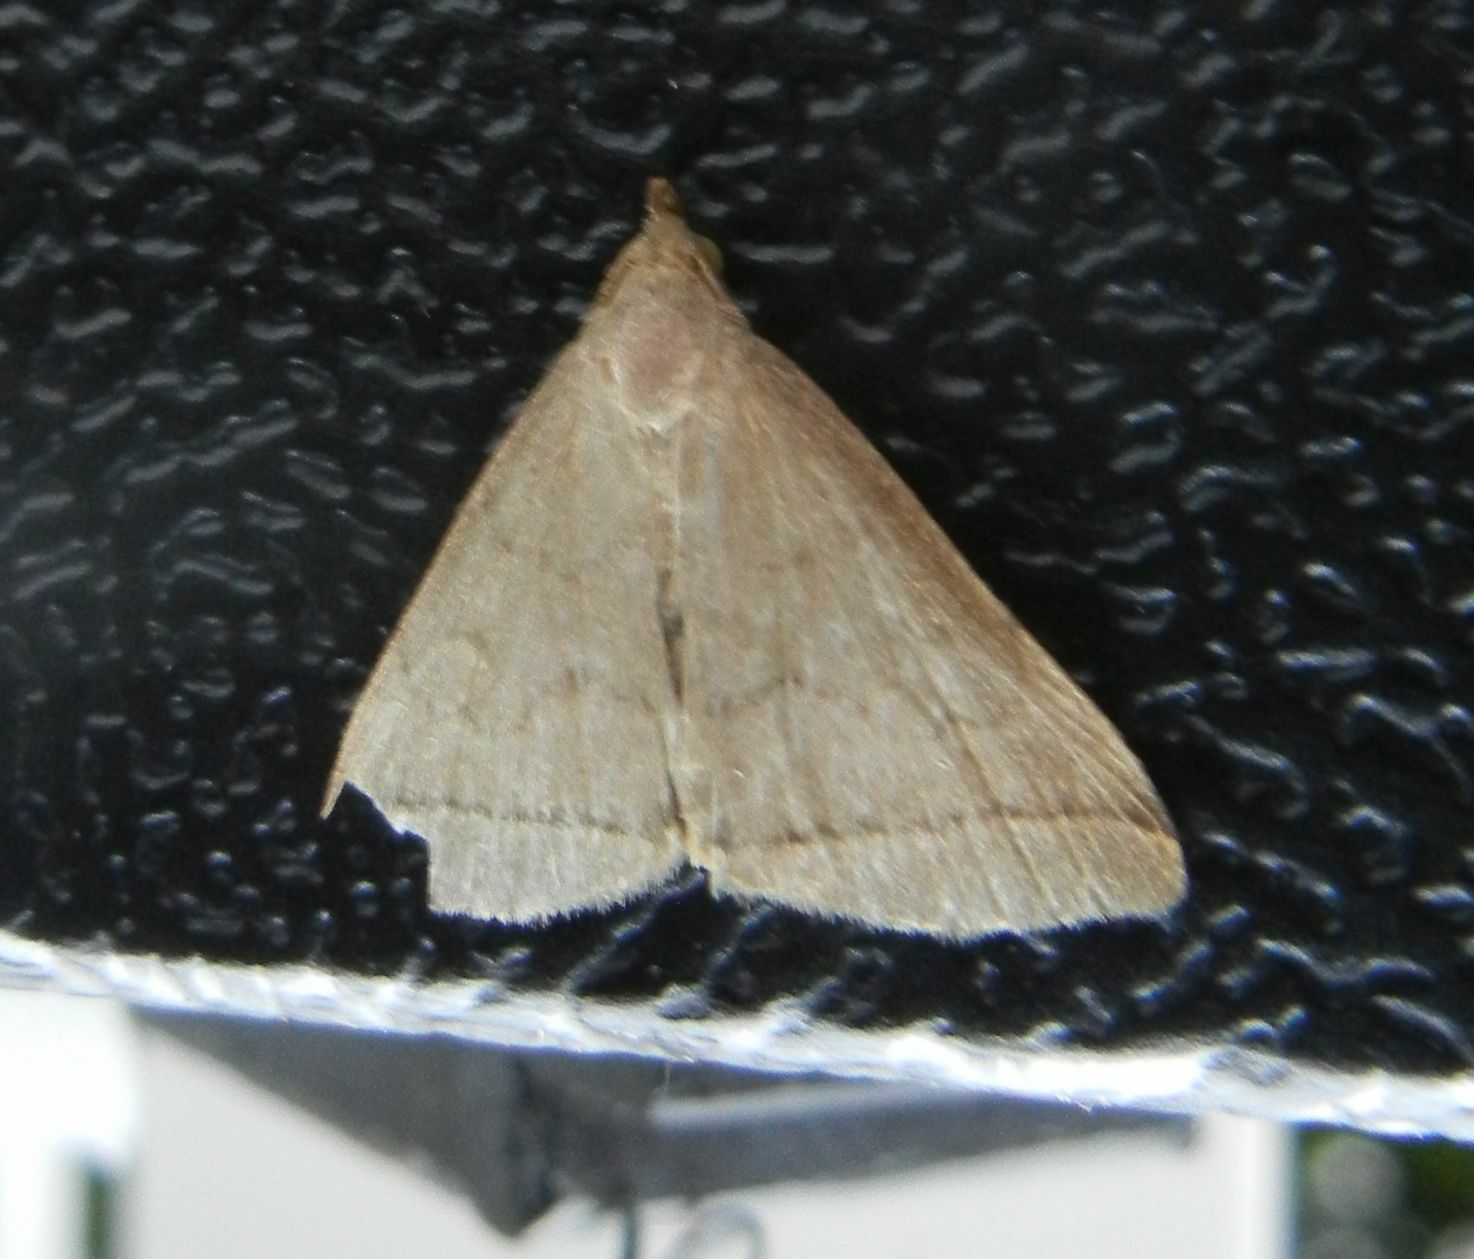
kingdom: Animalia
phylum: Arthropoda
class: Insecta
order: Lepidoptera
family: Erebidae
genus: Herminia
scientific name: Herminia tarsipennalis
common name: Fan-foot
